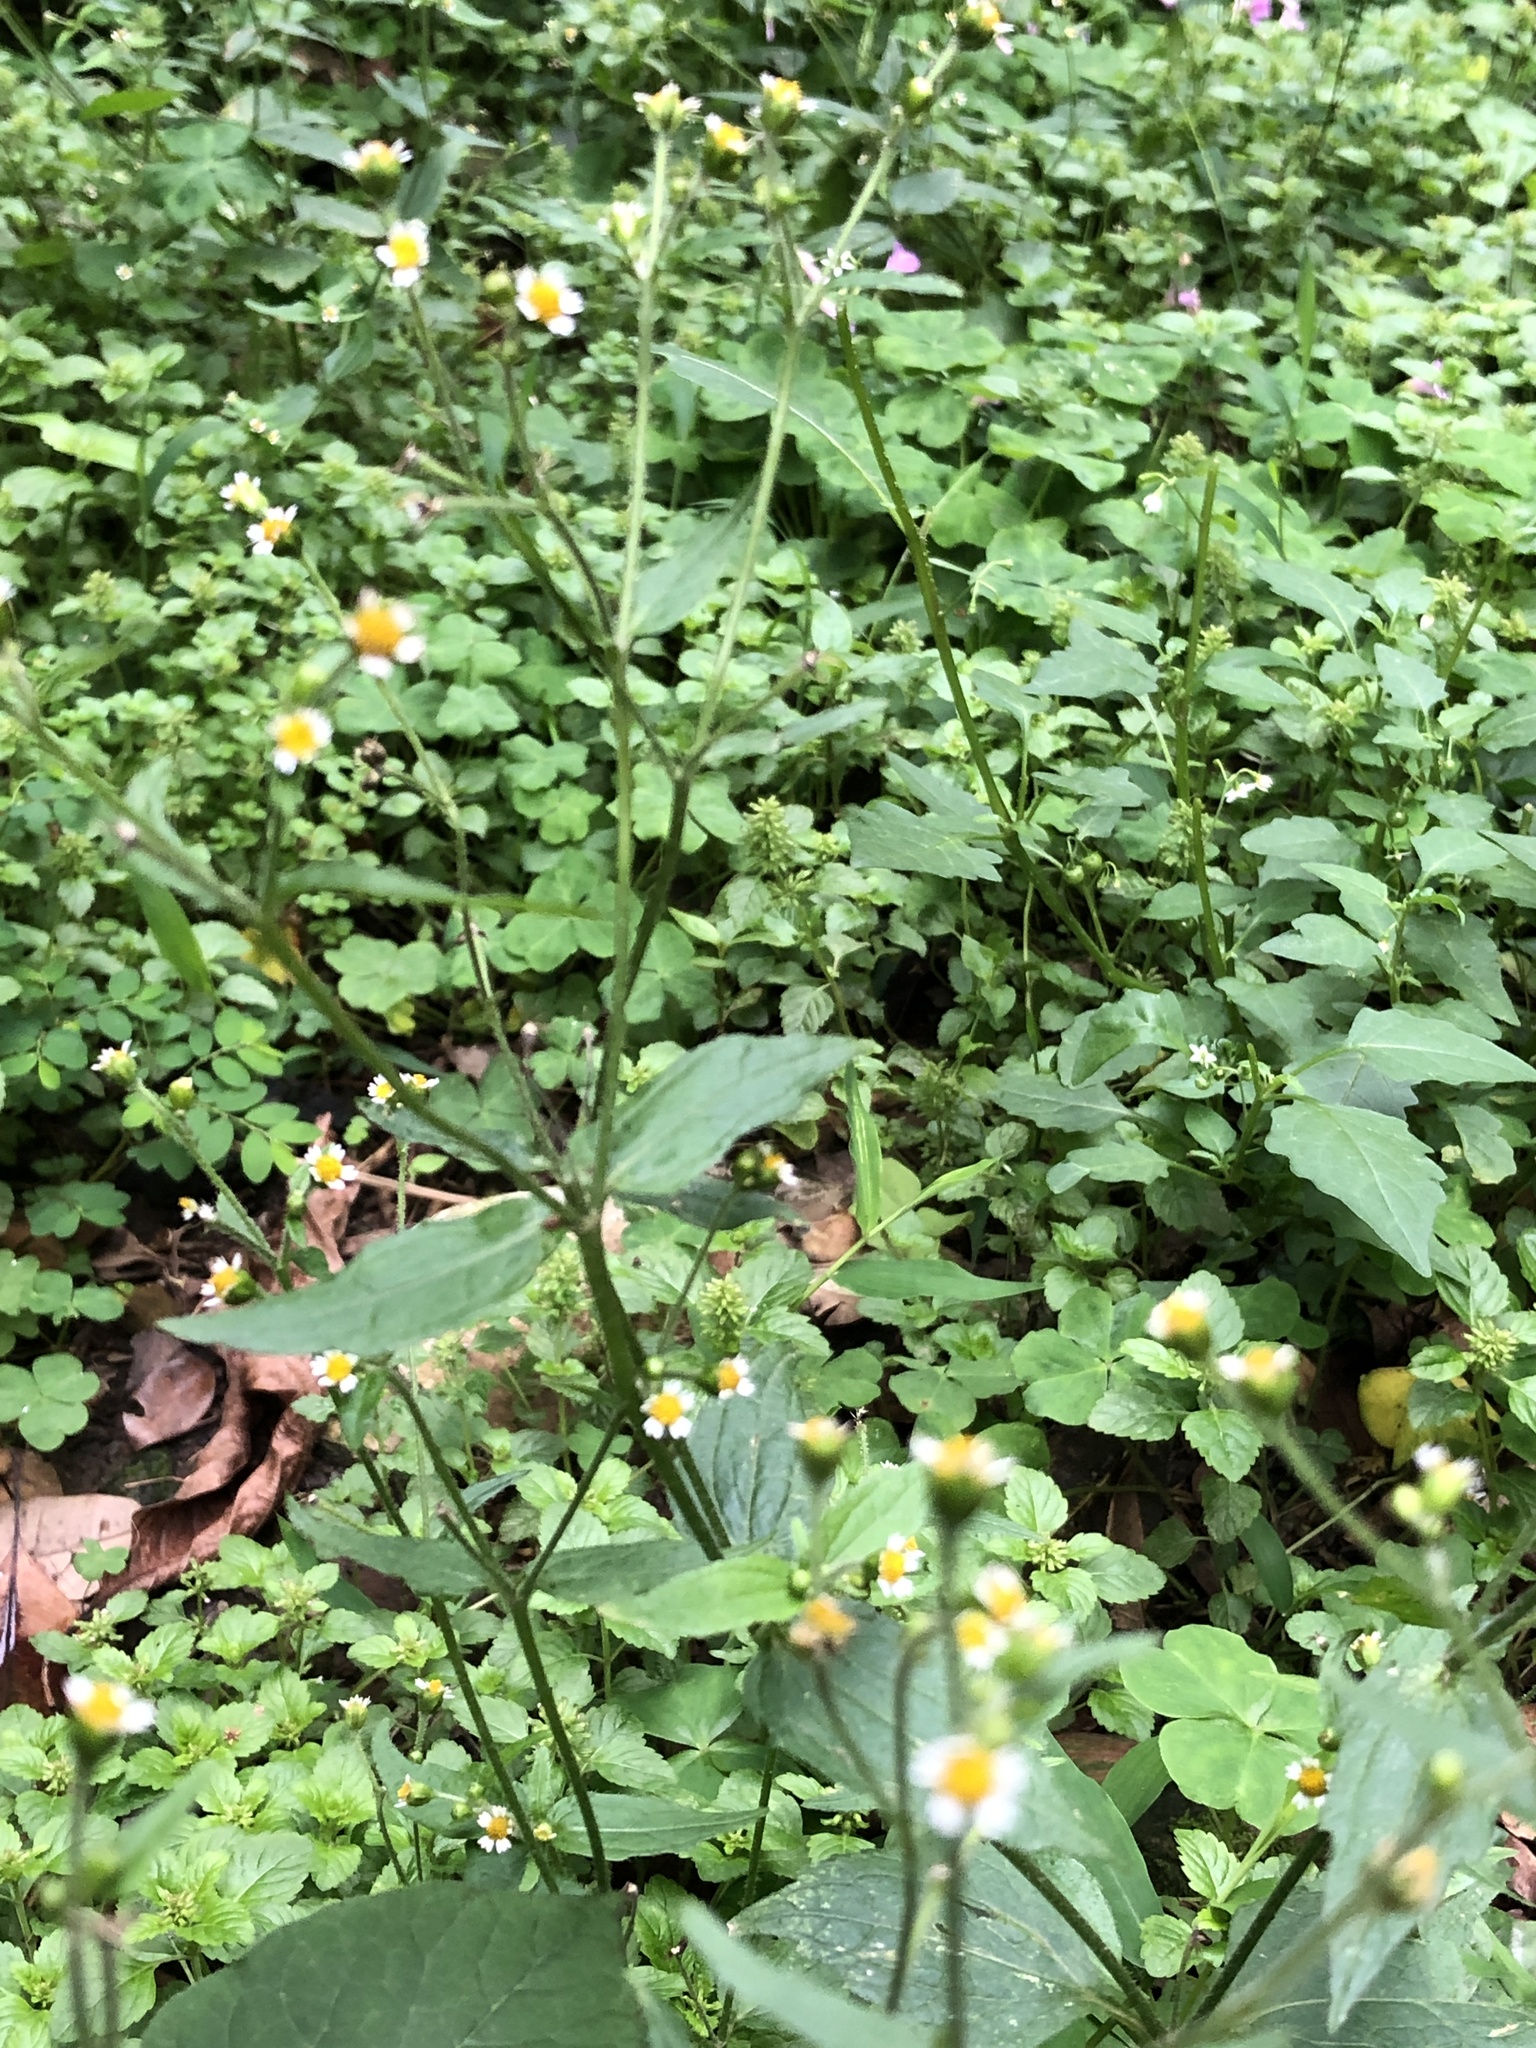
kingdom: Plantae
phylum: Tracheophyta
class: Magnoliopsida
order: Asterales
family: Asteraceae
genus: Galinsoga
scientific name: Galinsoga quadriradiata
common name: Shaggy soldier
